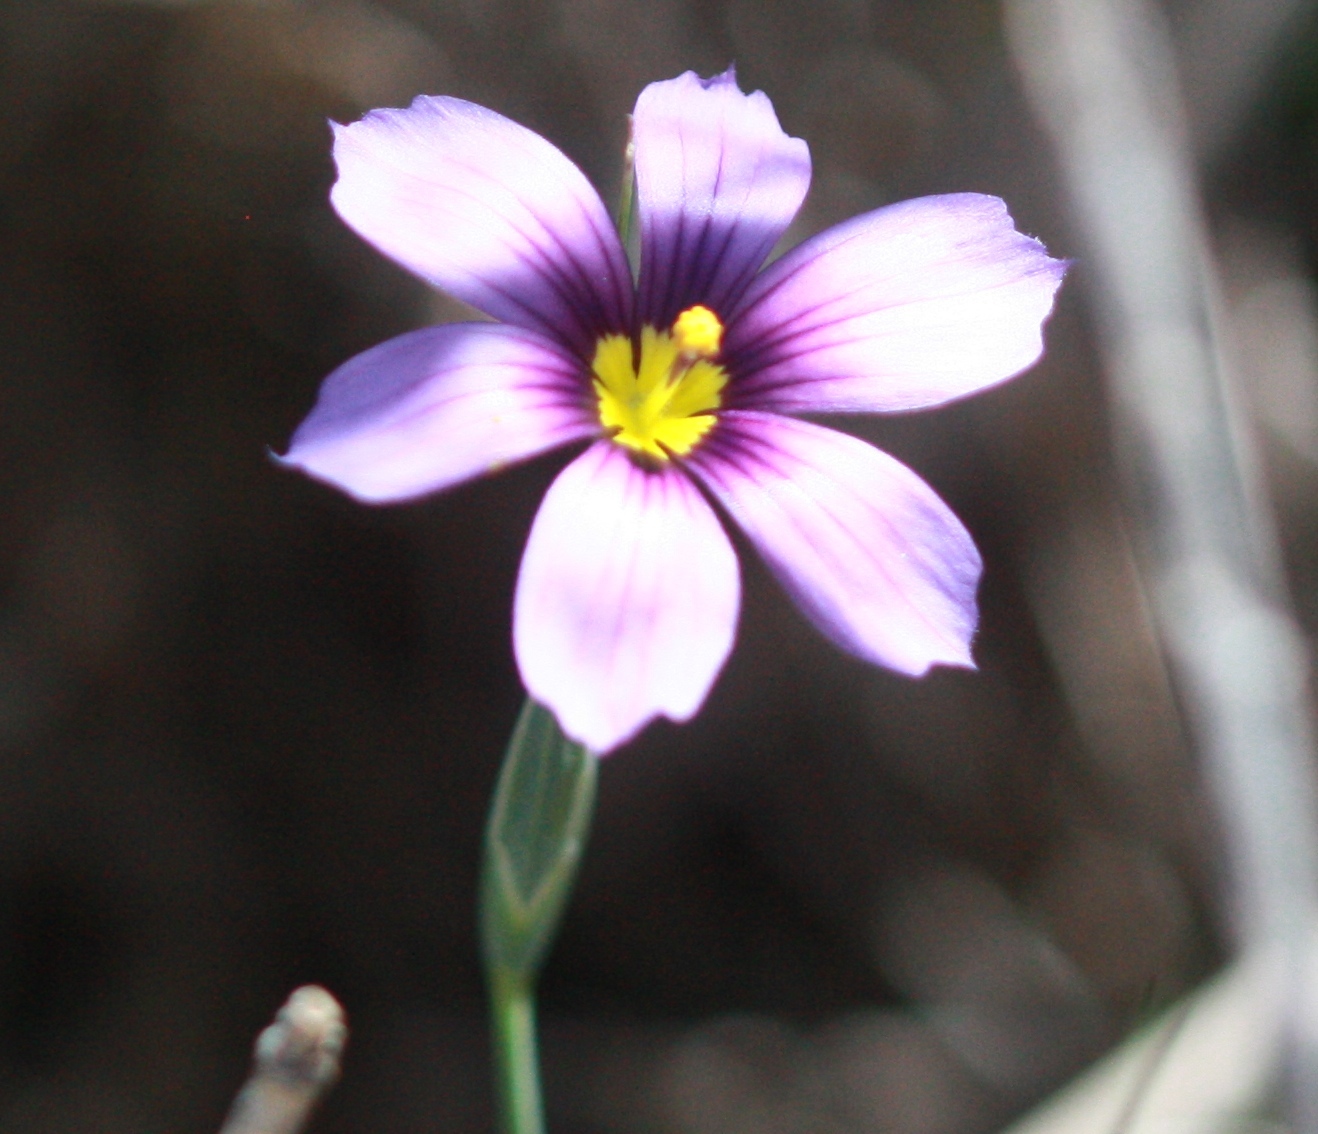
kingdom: Plantae
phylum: Tracheophyta
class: Liliopsida
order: Asparagales
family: Iridaceae
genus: Sisyrinchium
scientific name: Sisyrinchium bellum
